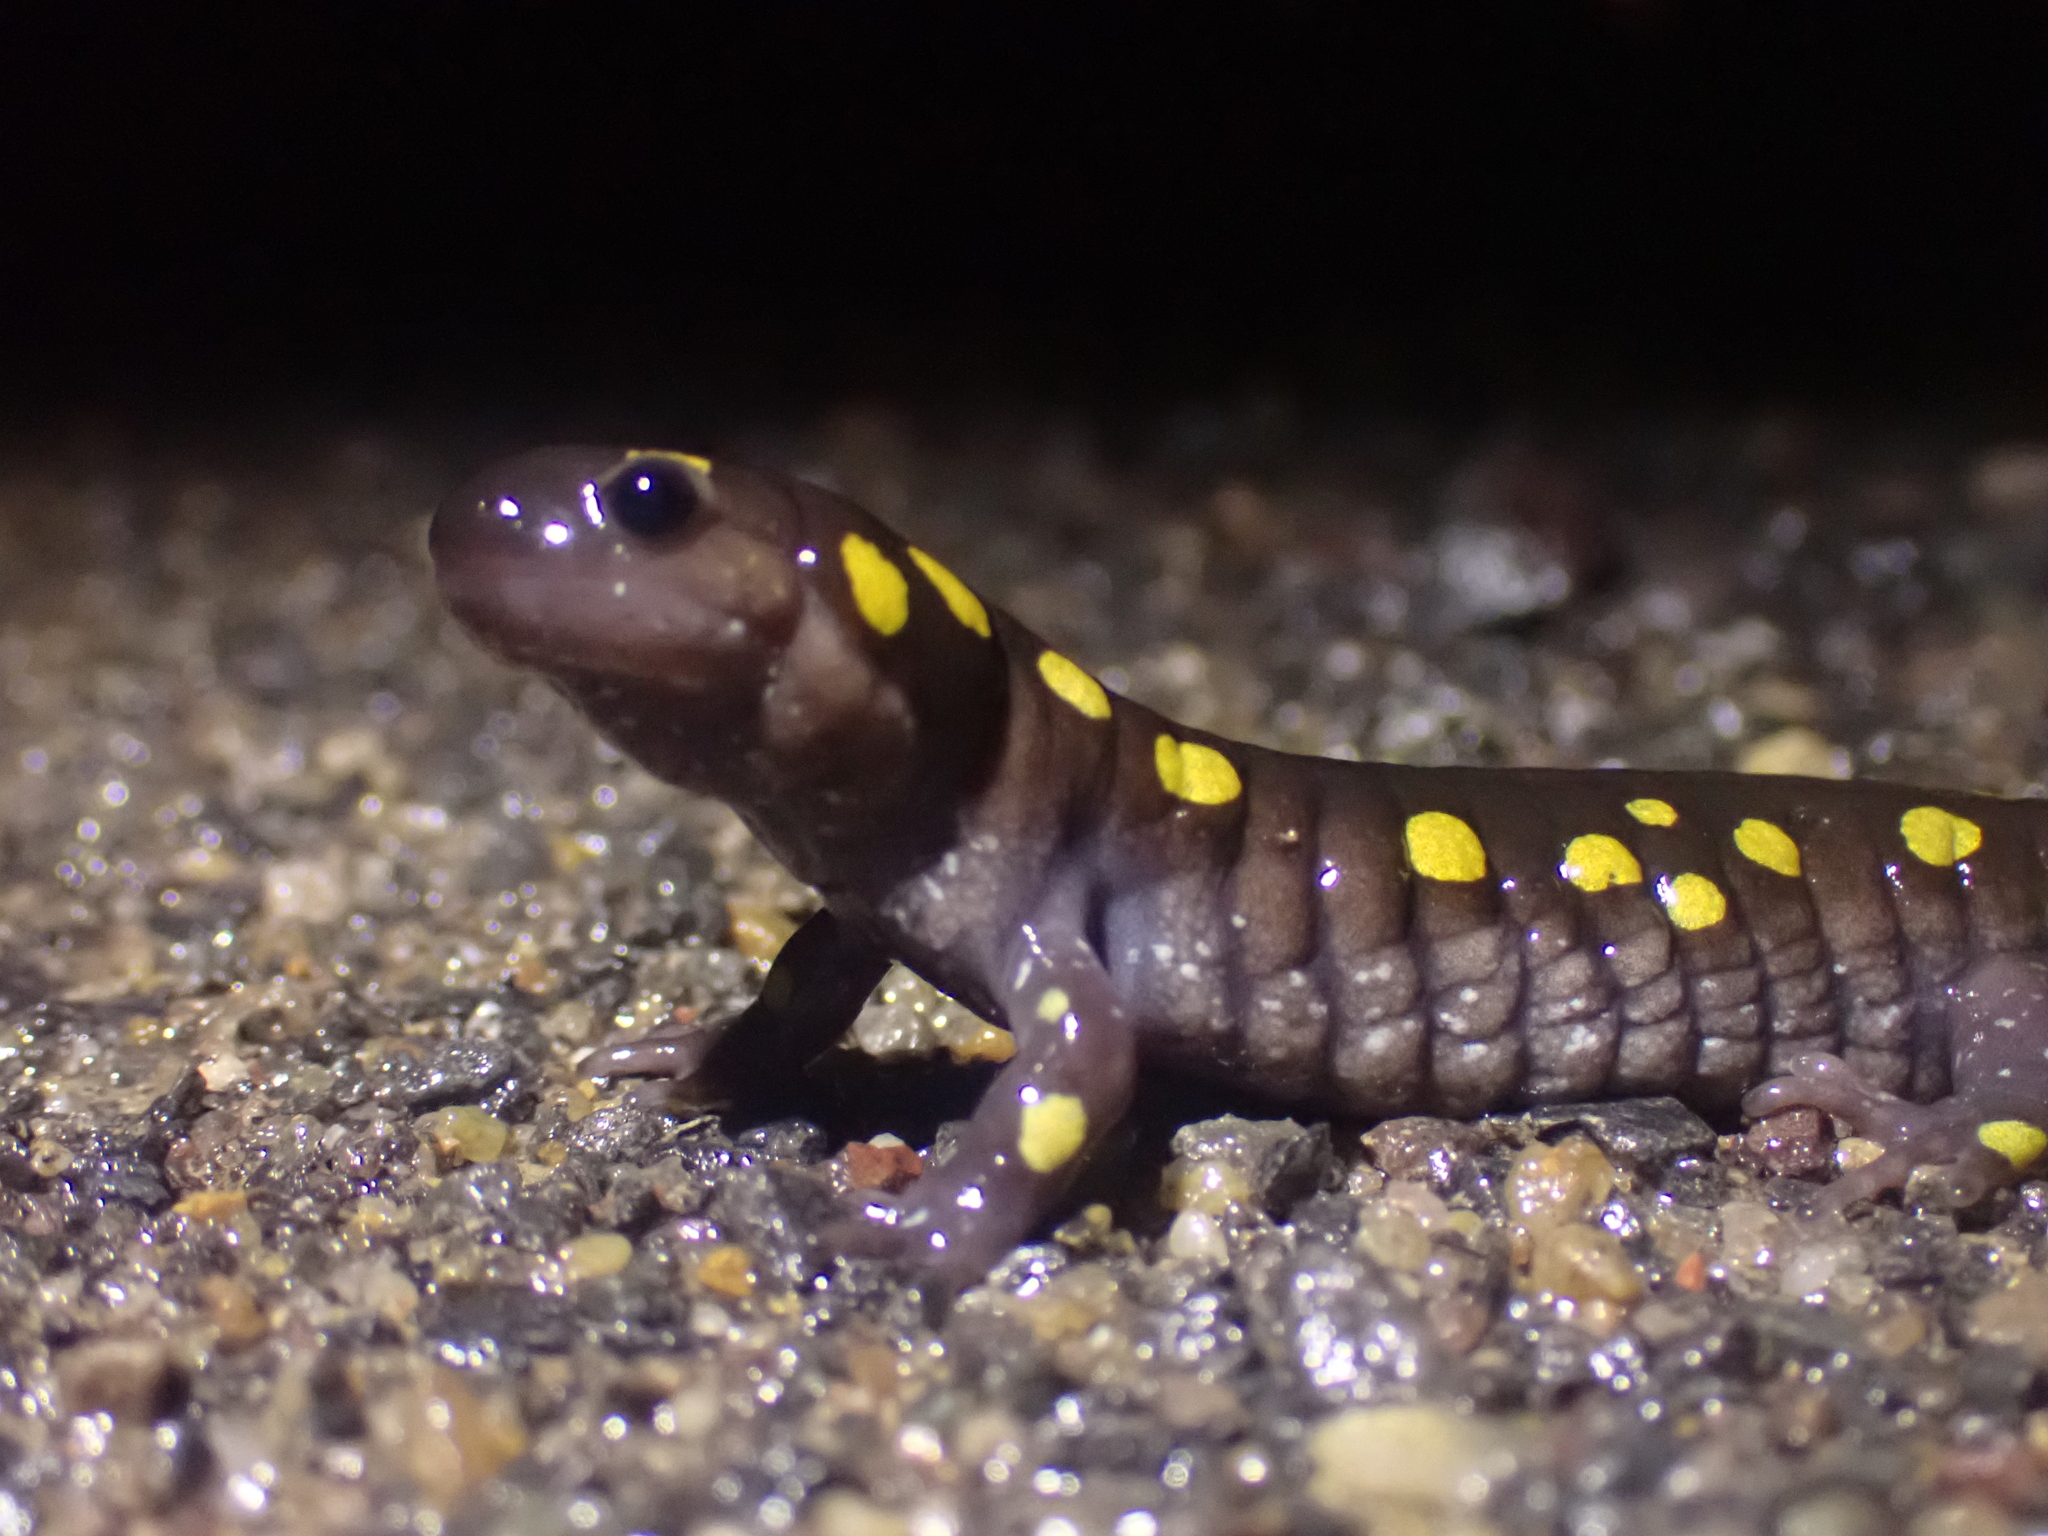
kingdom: Animalia
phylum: Chordata
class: Amphibia
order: Caudata
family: Ambystomatidae
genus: Ambystoma
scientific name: Ambystoma maculatum
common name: Spotted salamander
